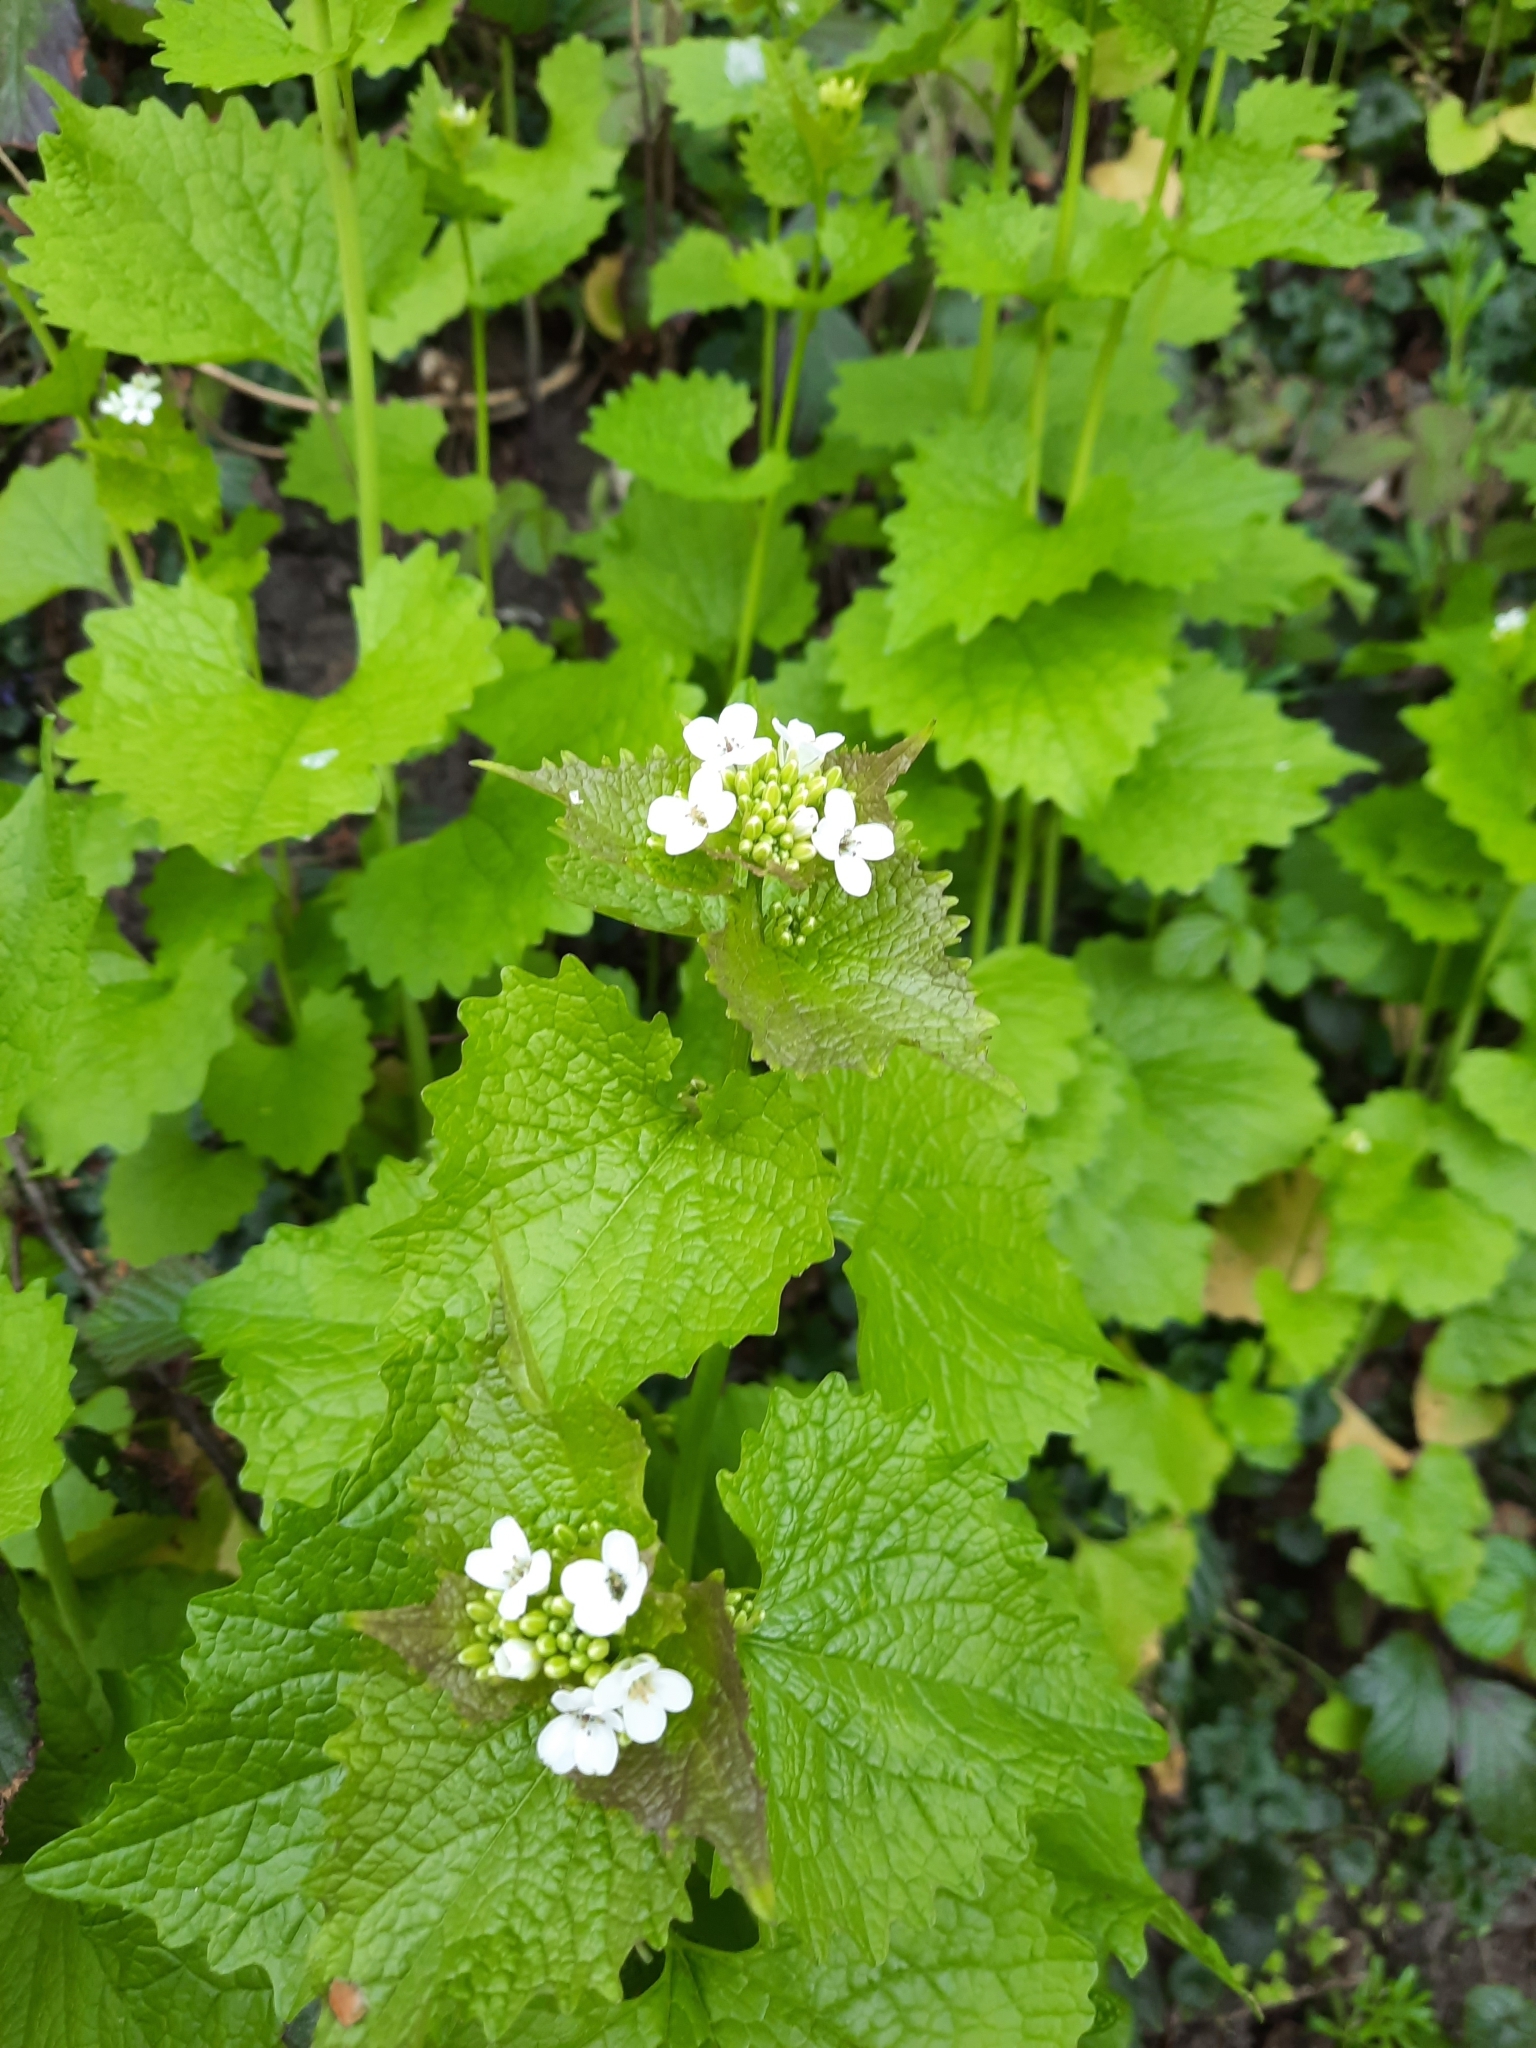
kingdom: Plantae
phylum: Tracheophyta
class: Magnoliopsida
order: Brassicales
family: Brassicaceae
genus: Alliaria
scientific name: Alliaria petiolata
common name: Garlic mustard
